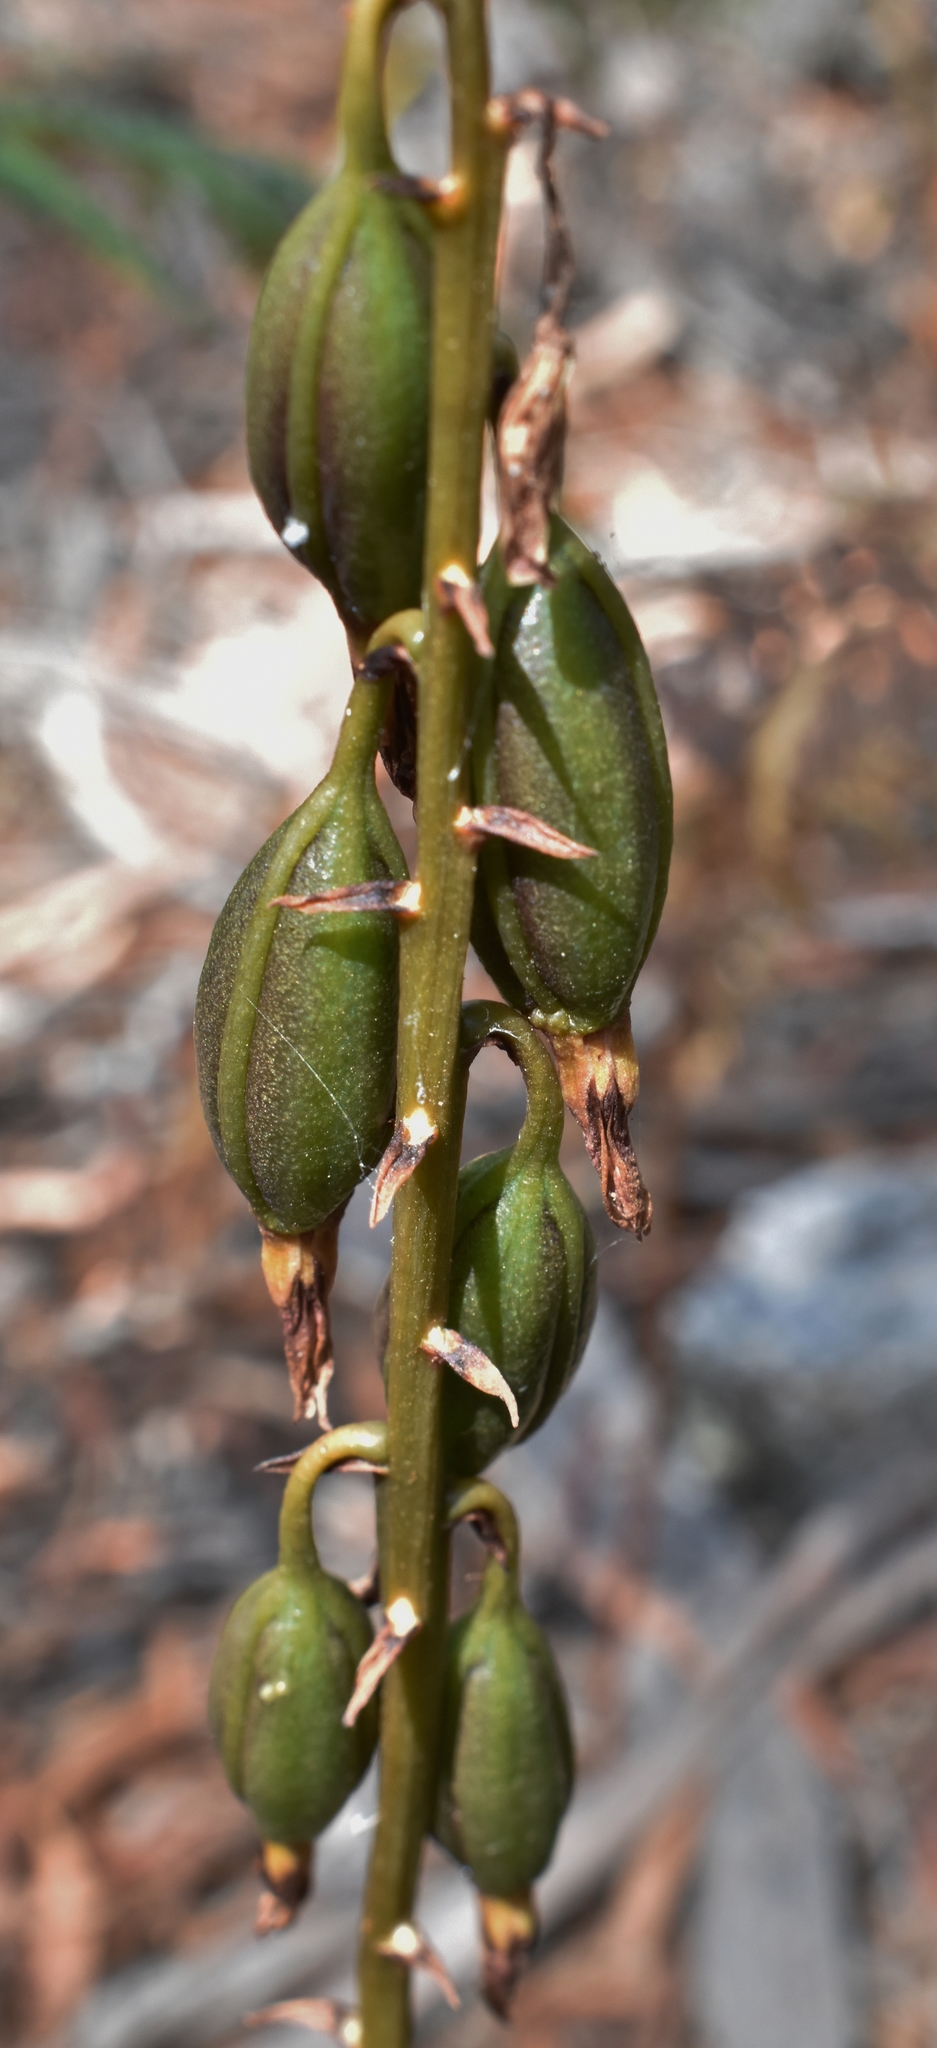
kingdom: Plantae
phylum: Tracheophyta
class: Liliopsida
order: Asparagales
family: Orchidaceae
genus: Dipodium
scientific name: Dipodium roseum
